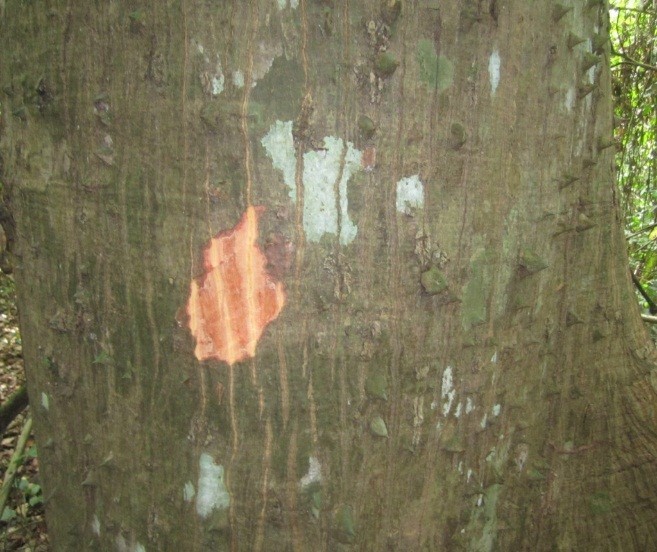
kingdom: Plantae
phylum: Tracheophyta
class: Magnoliopsida
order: Malvales
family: Malvaceae
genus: Ceiba
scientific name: Ceiba pentandra
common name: Kapok
